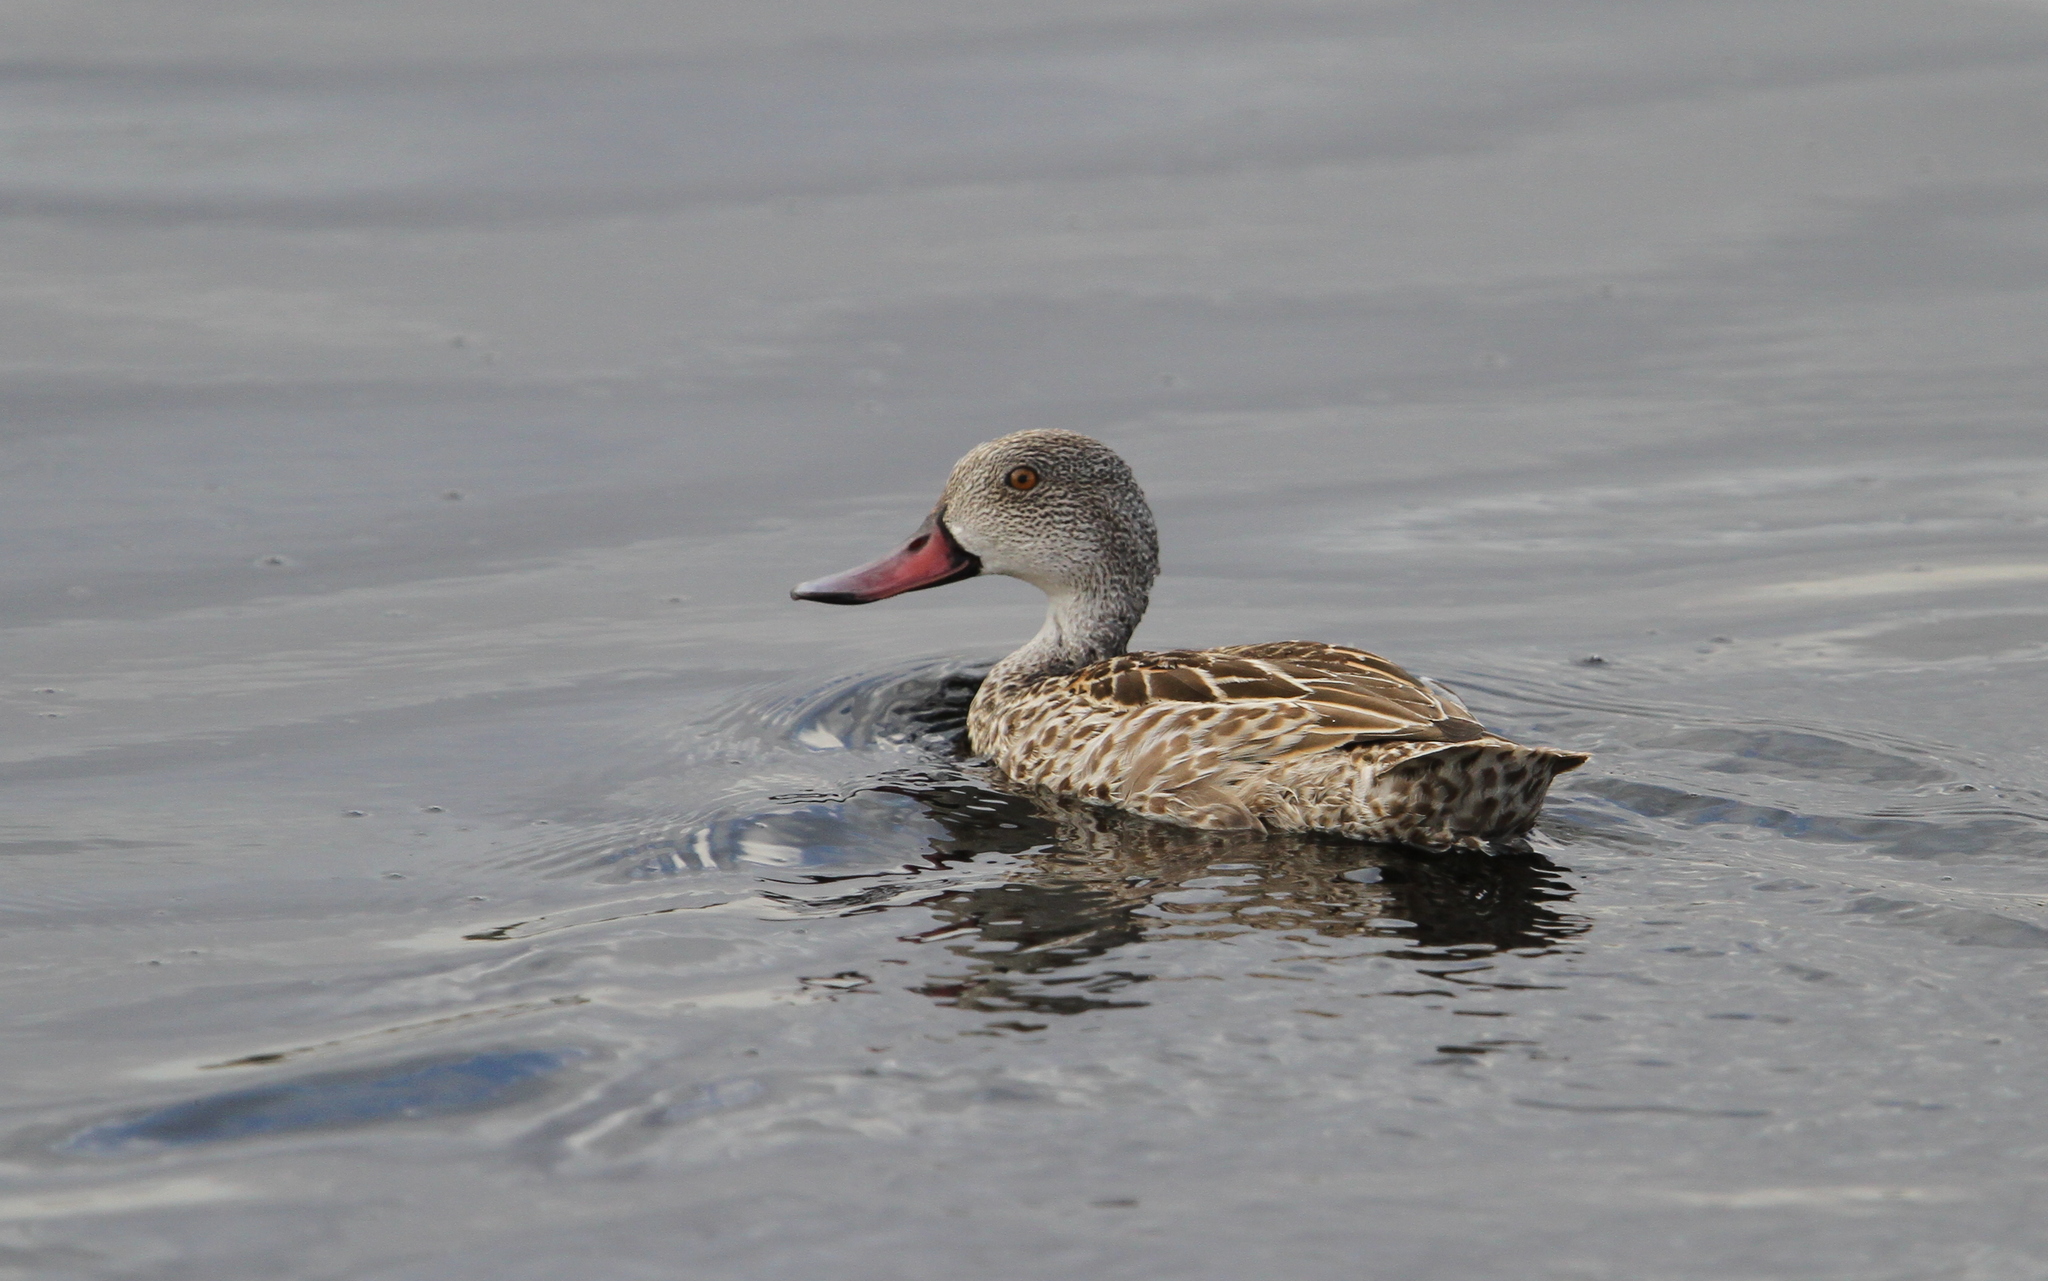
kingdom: Animalia
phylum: Chordata
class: Aves
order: Anseriformes
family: Anatidae
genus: Anas
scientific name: Anas capensis
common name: Cape teal
